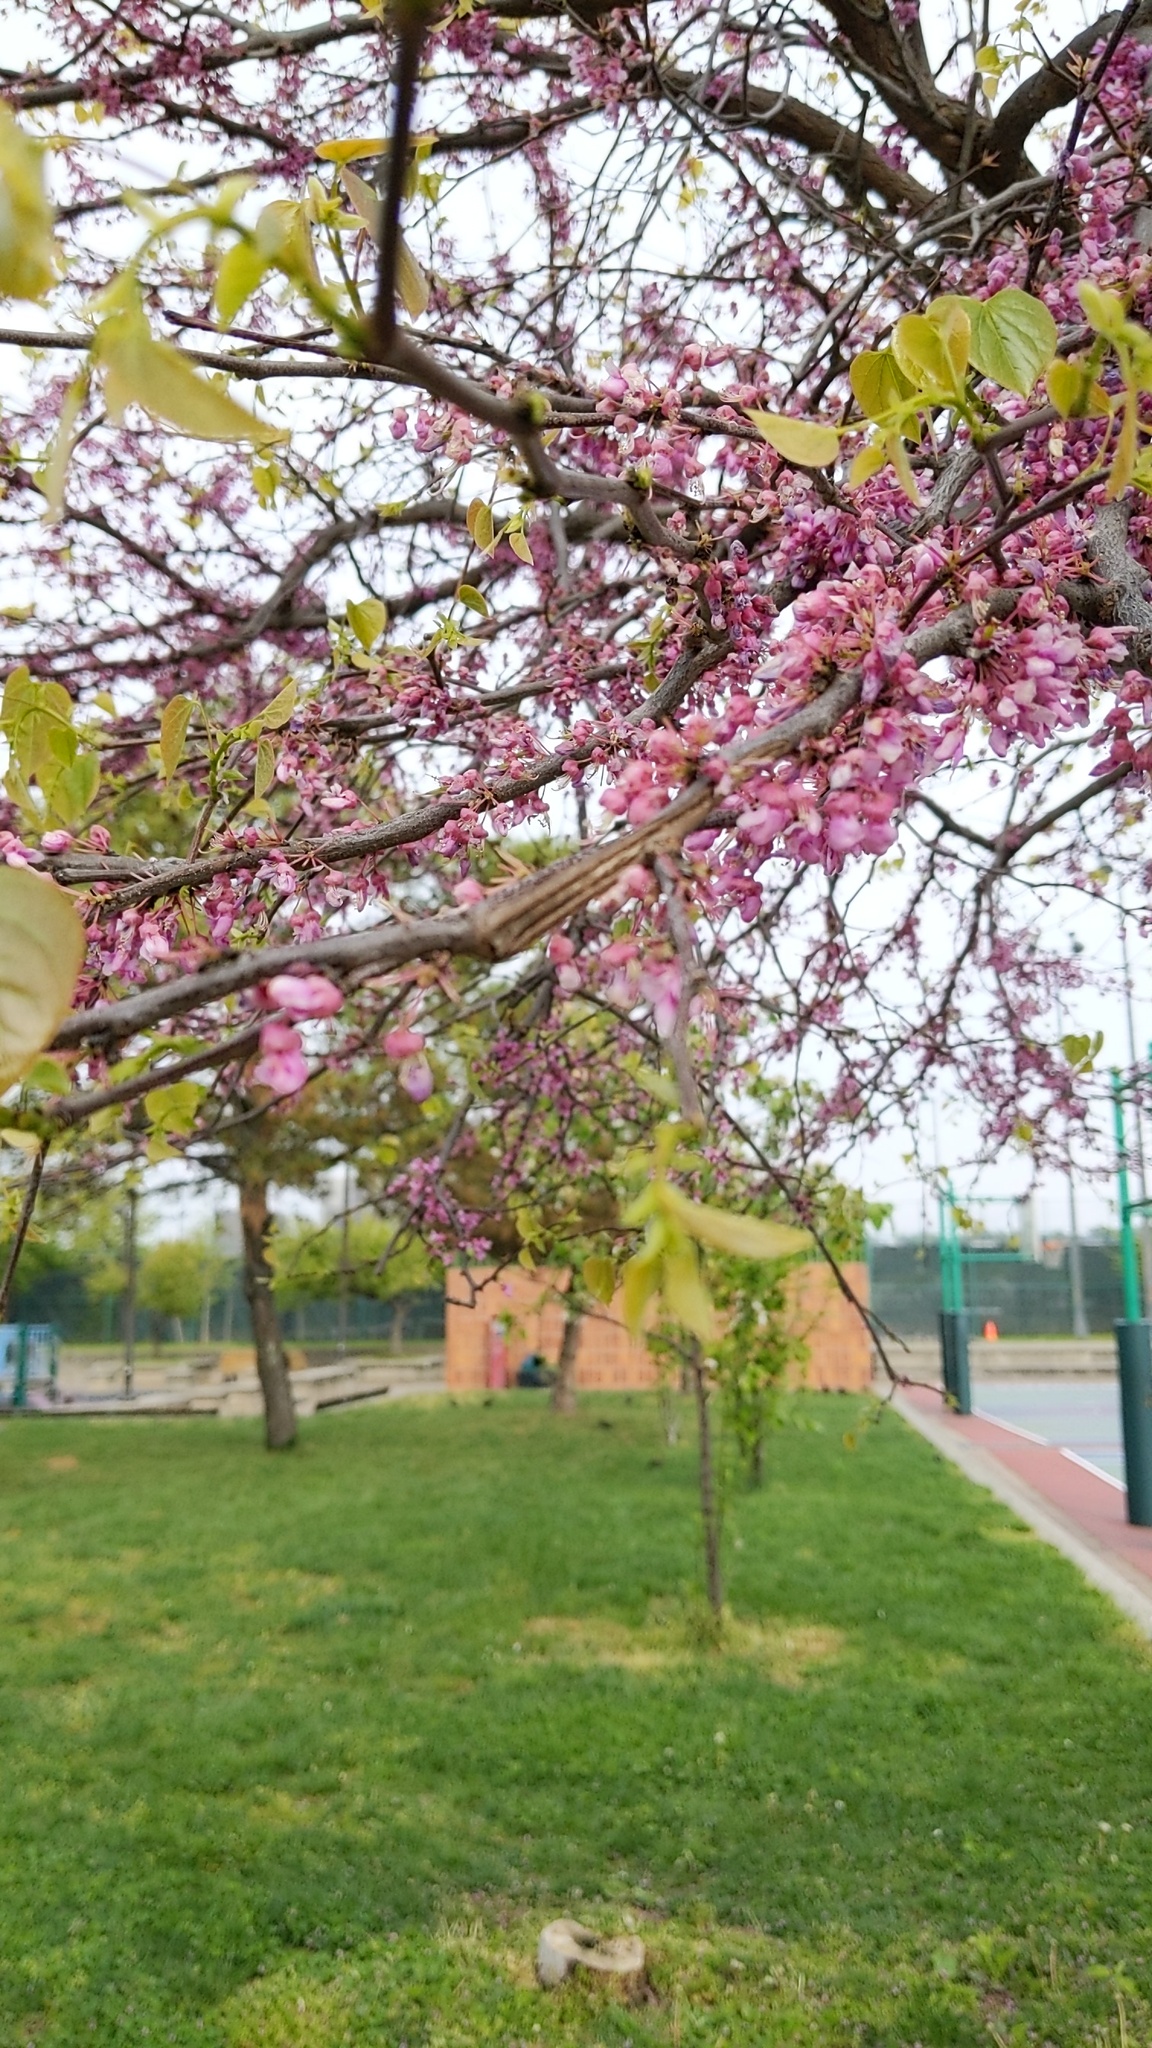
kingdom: Plantae
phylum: Tracheophyta
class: Magnoliopsida
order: Fabales
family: Fabaceae
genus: Cercis
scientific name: Cercis canadensis
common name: Eastern redbud
